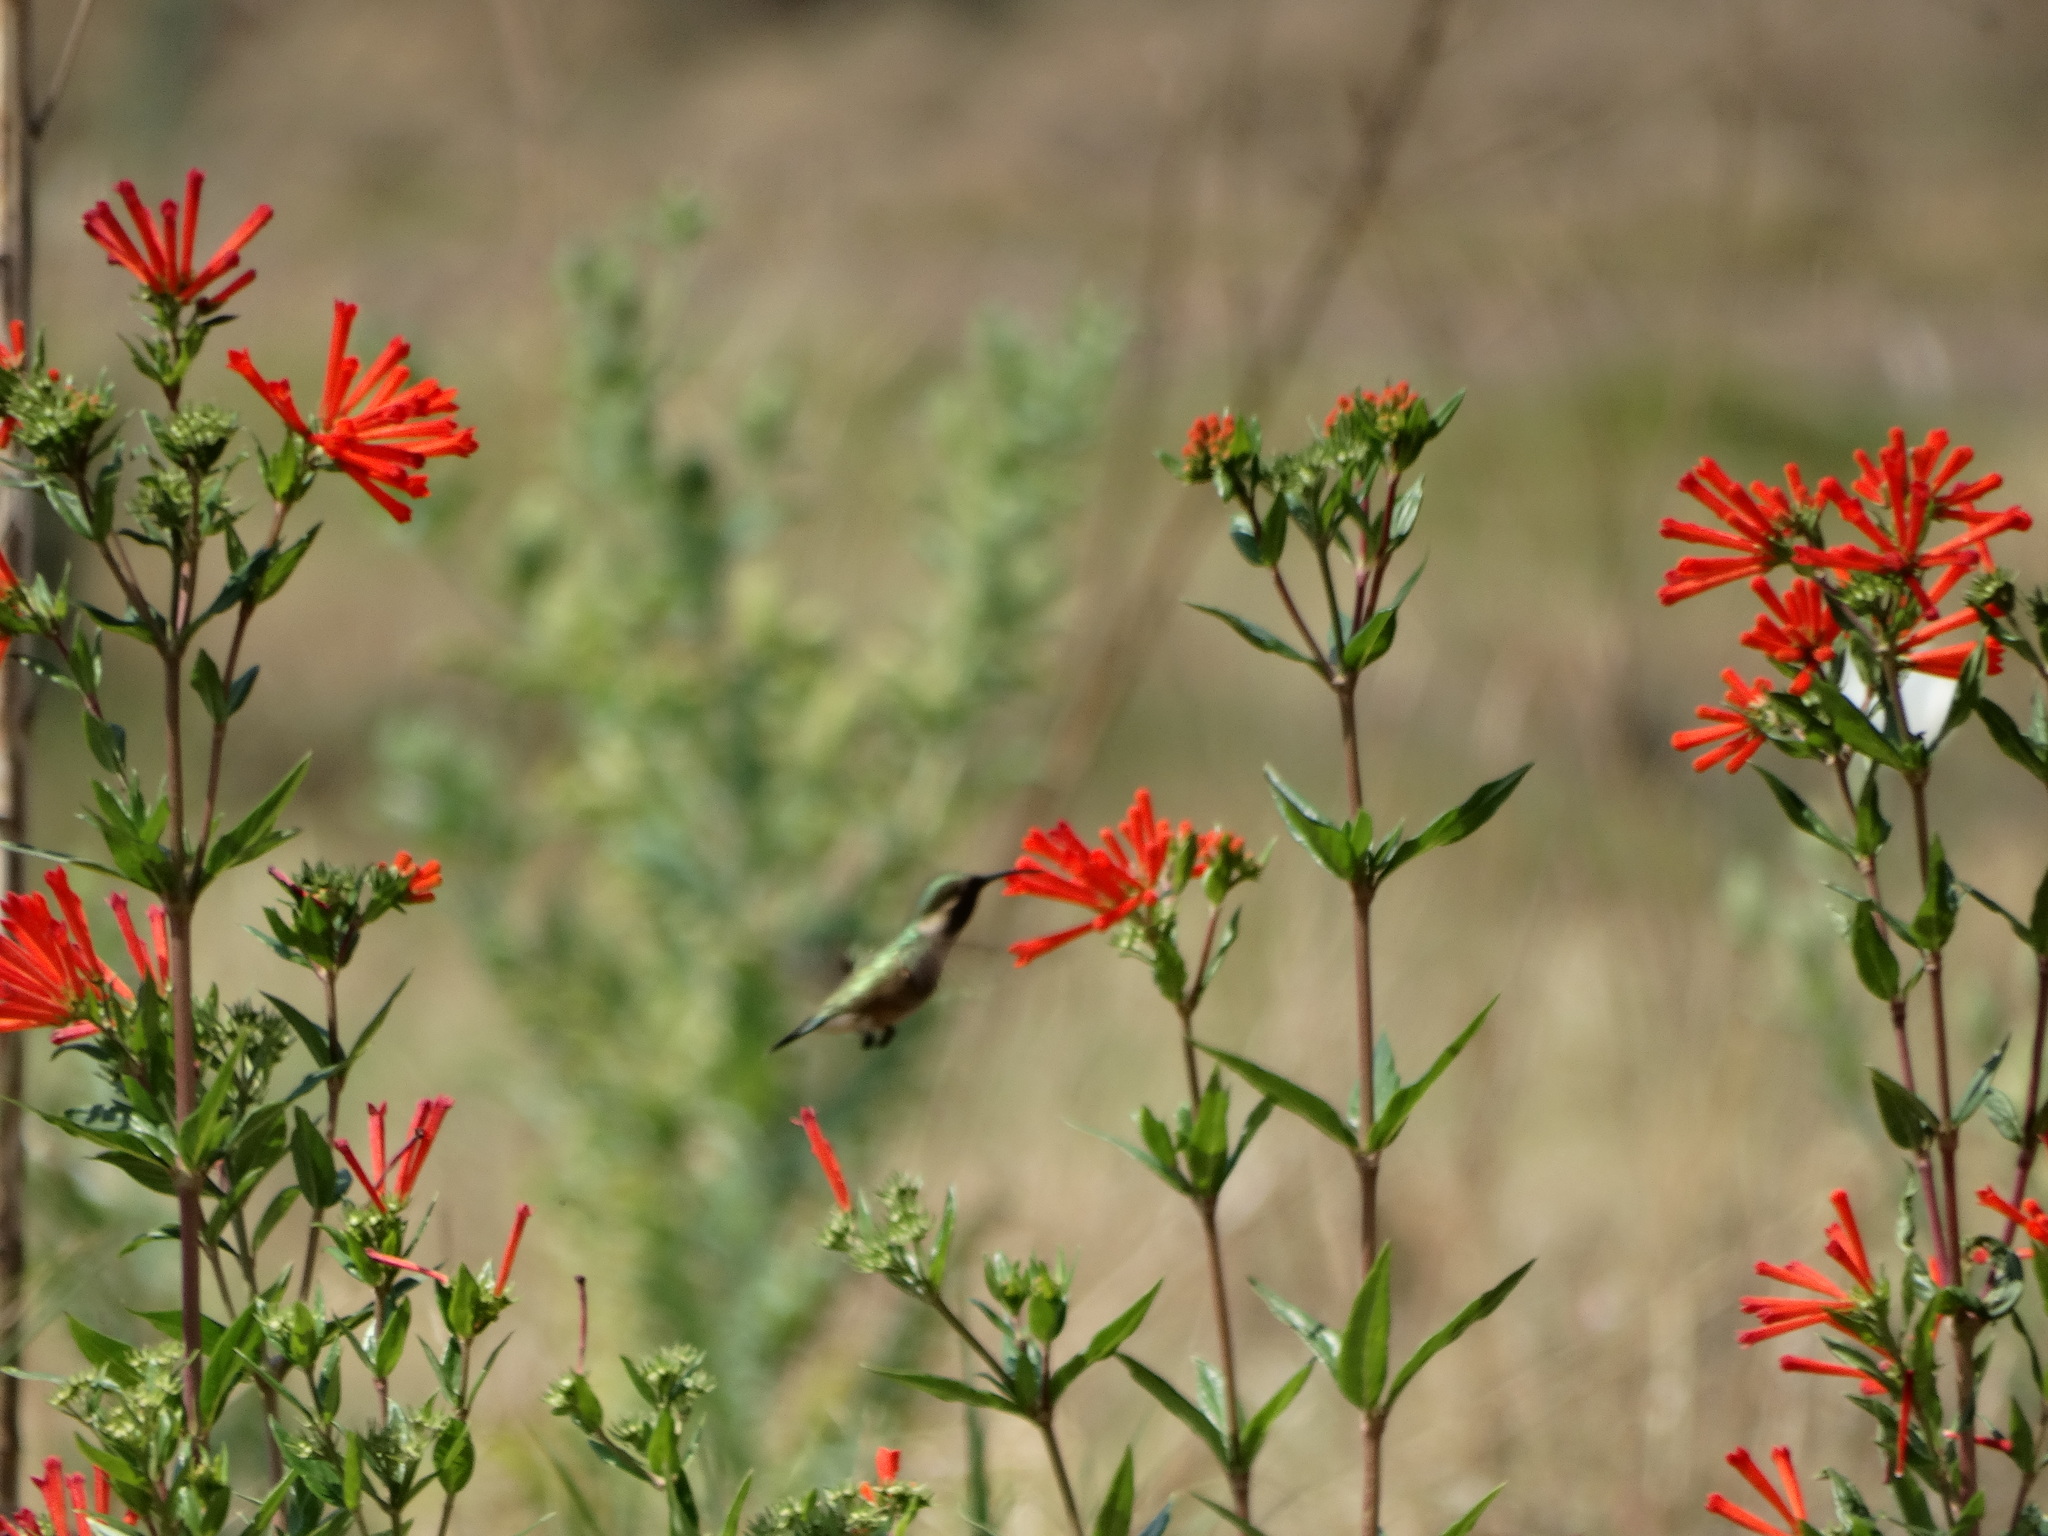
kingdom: Plantae
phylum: Tracheophyta
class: Magnoliopsida
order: Gentianales
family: Rubiaceae
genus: Bouvardia
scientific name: Bouvardia ternifolia
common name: Scarlet bouvardia
